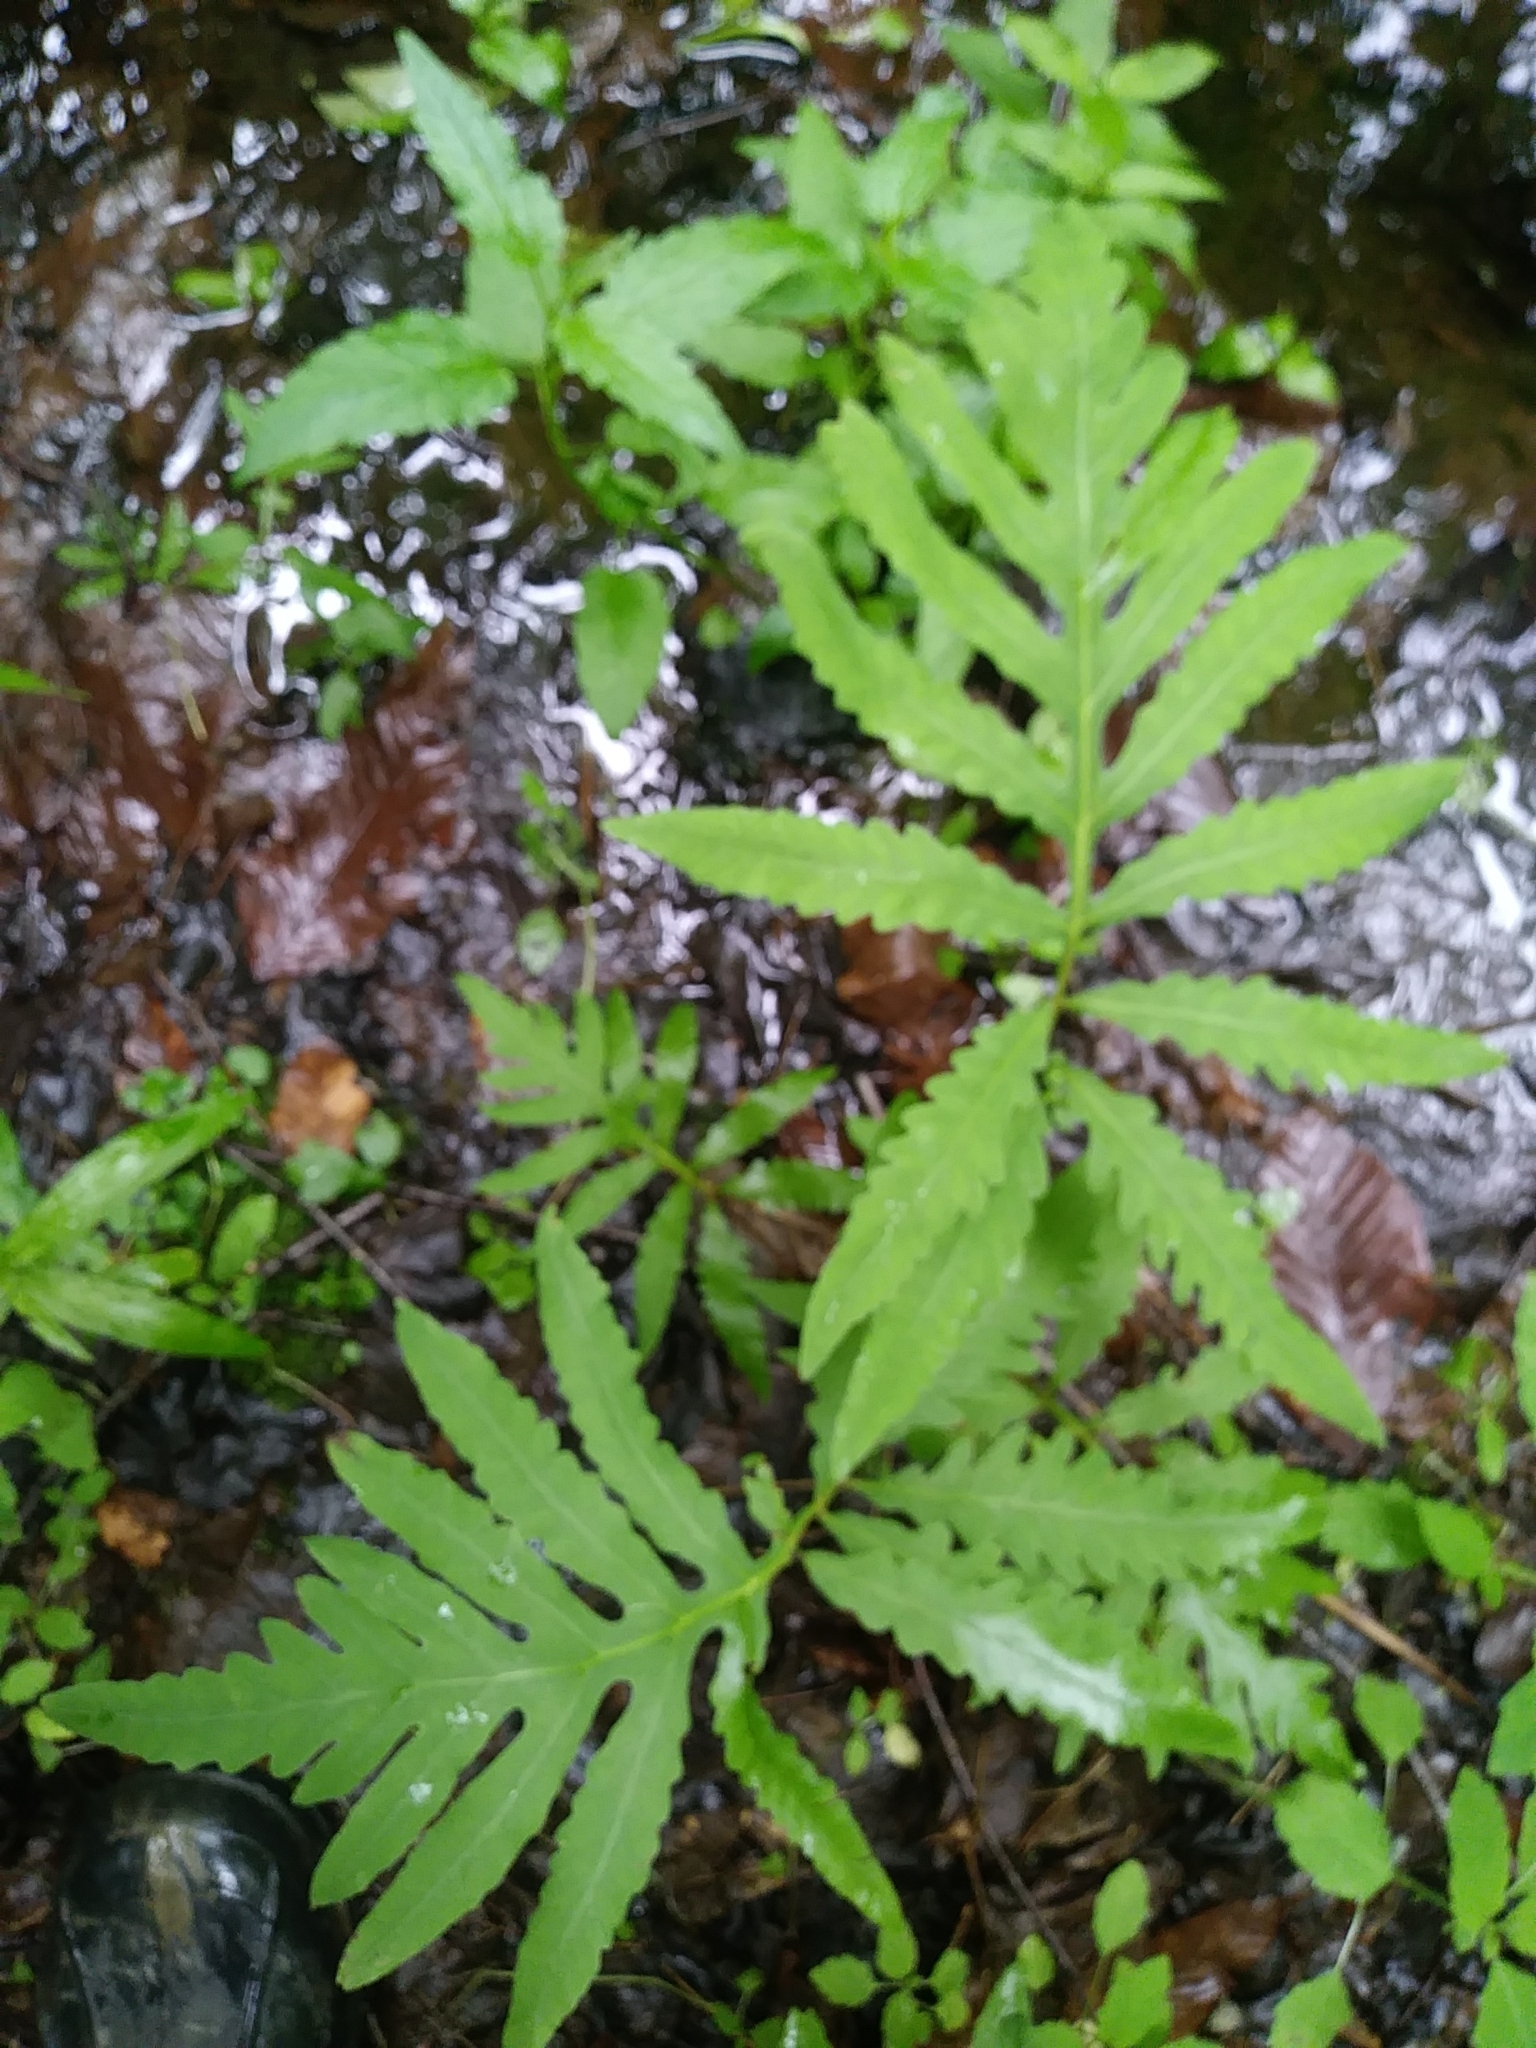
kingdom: Plantae
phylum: Tracheophyta
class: Polypodiopsida
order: Polypodiales
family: Onocleaceae
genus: Onoclea
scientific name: Onoclea sensibilis
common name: Sensitive fern
